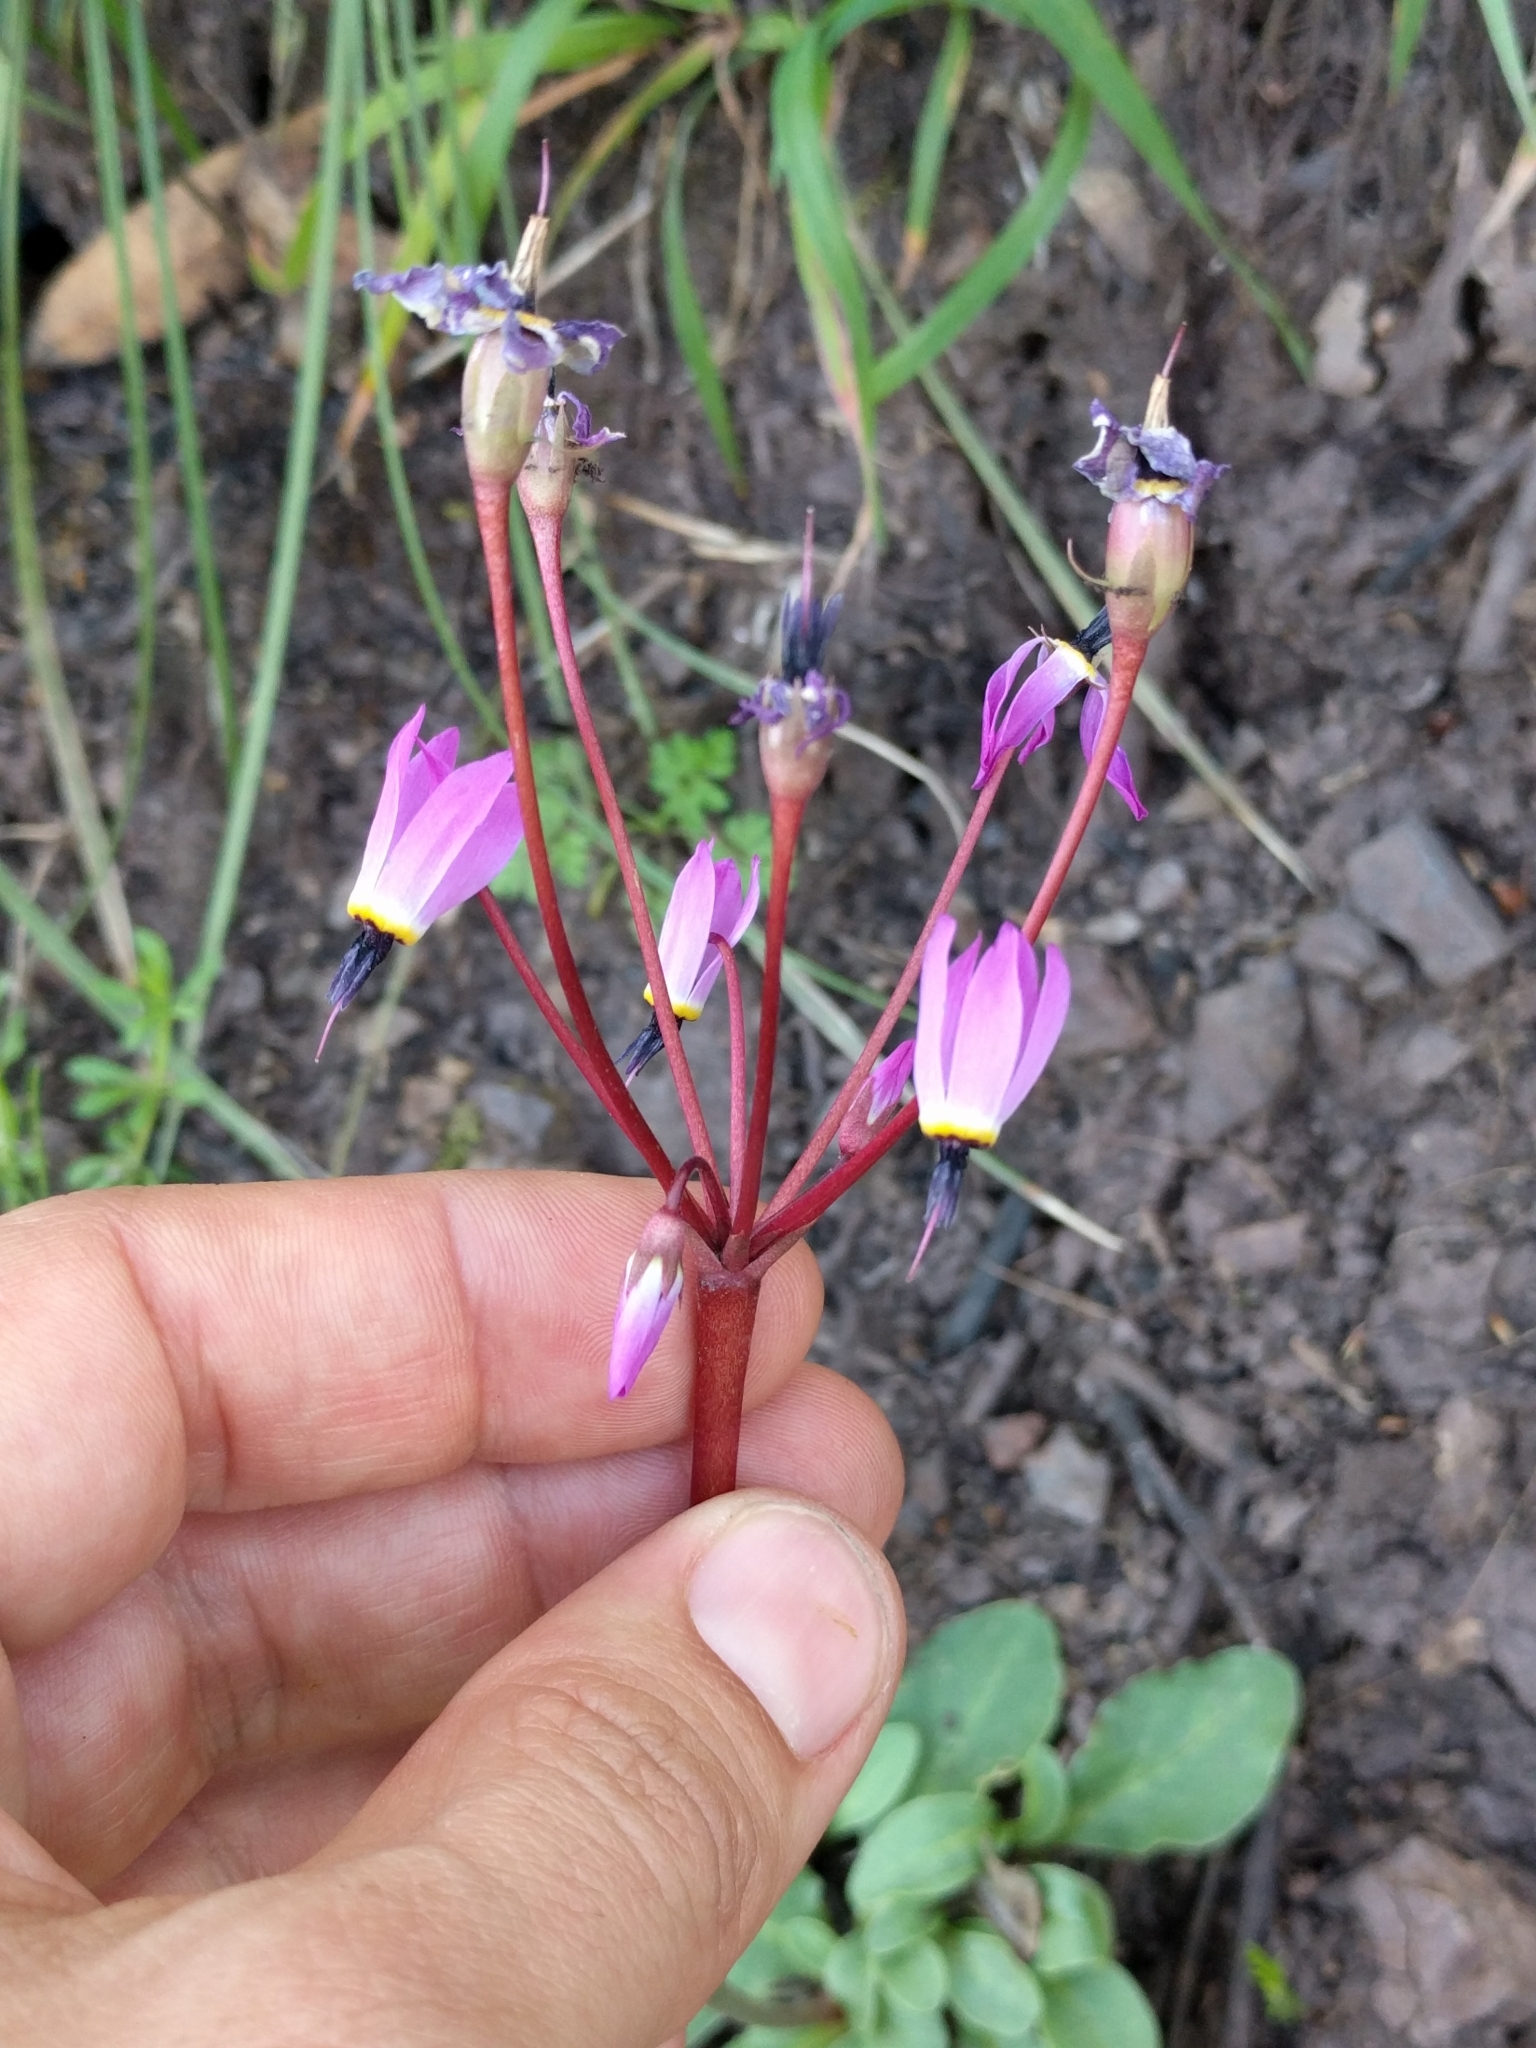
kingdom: Plantae
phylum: Tracheophyta
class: Magnoliopsida
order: Ericales
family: Primulaceae
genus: Dodecatheon
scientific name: Dodecatheon hendersonii
